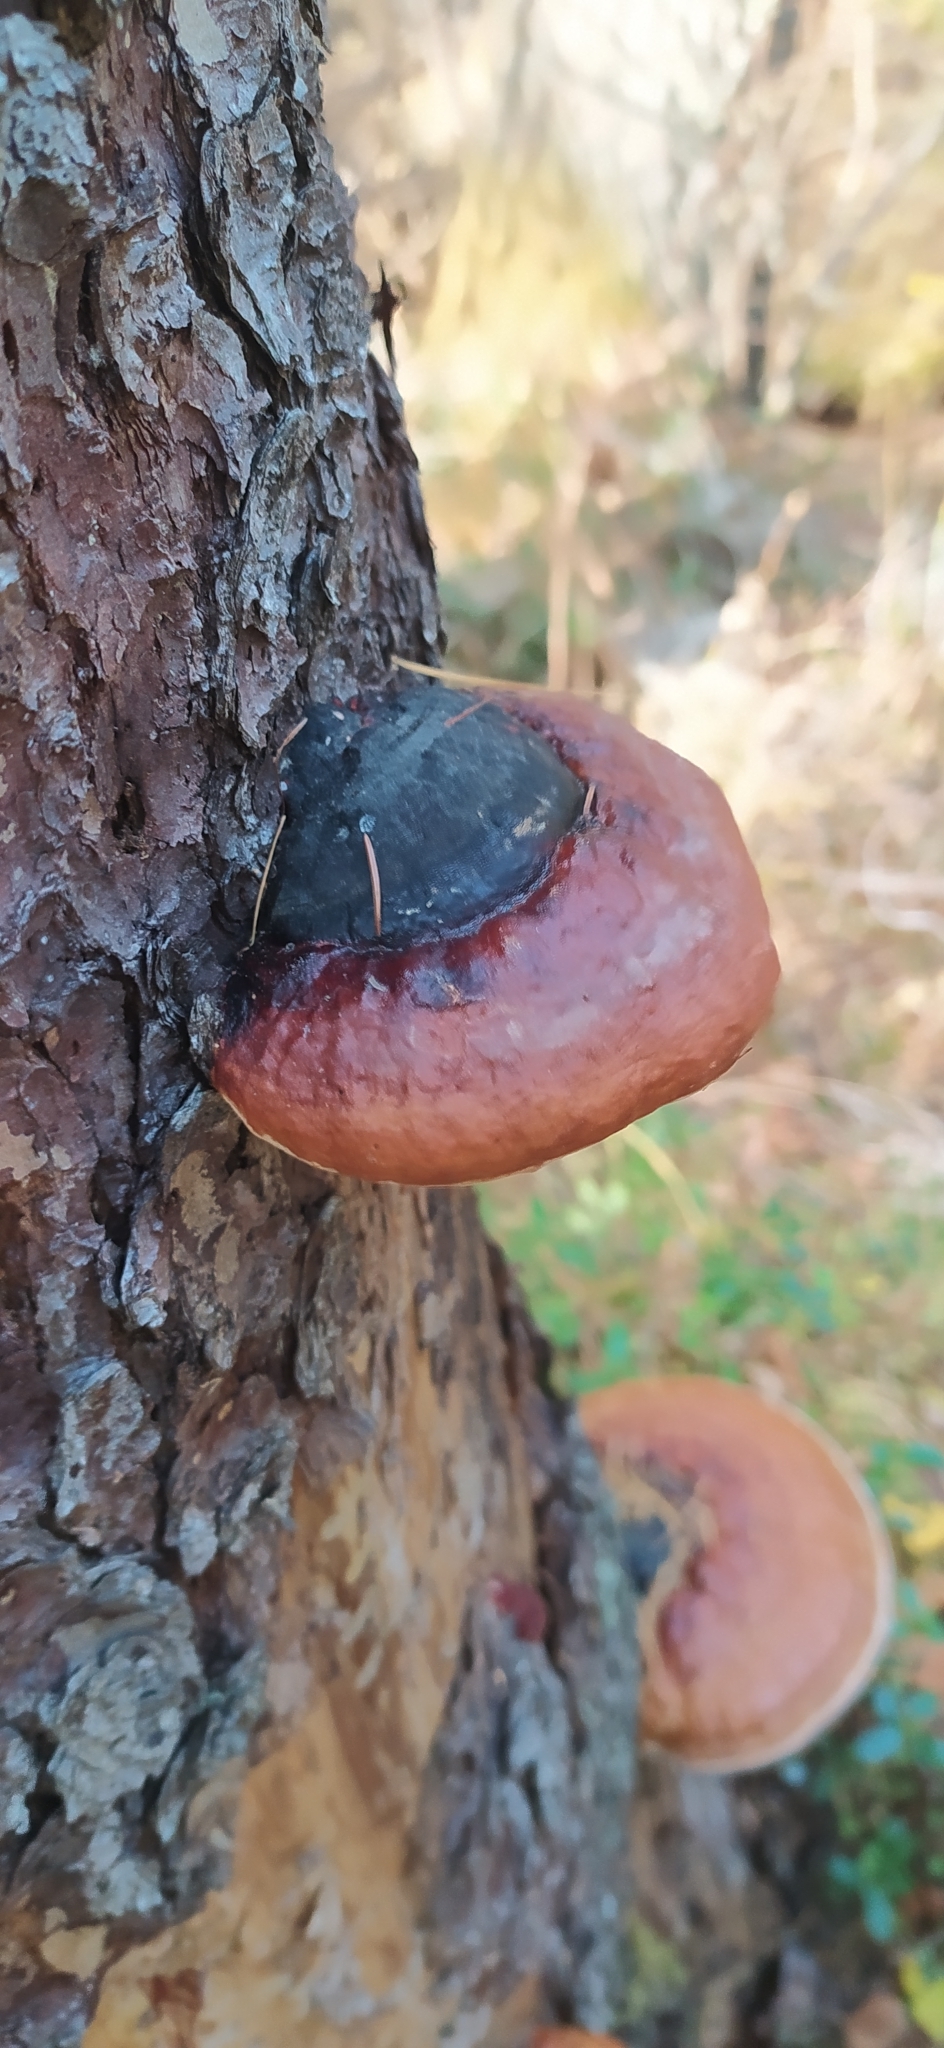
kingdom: Fungi
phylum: Basidiomycota
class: Agaricomycetes
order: Polyporales
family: Fomitopsidaceae
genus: Fomitopsis
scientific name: Fomitopsis pinicola
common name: Red-belted bracket
